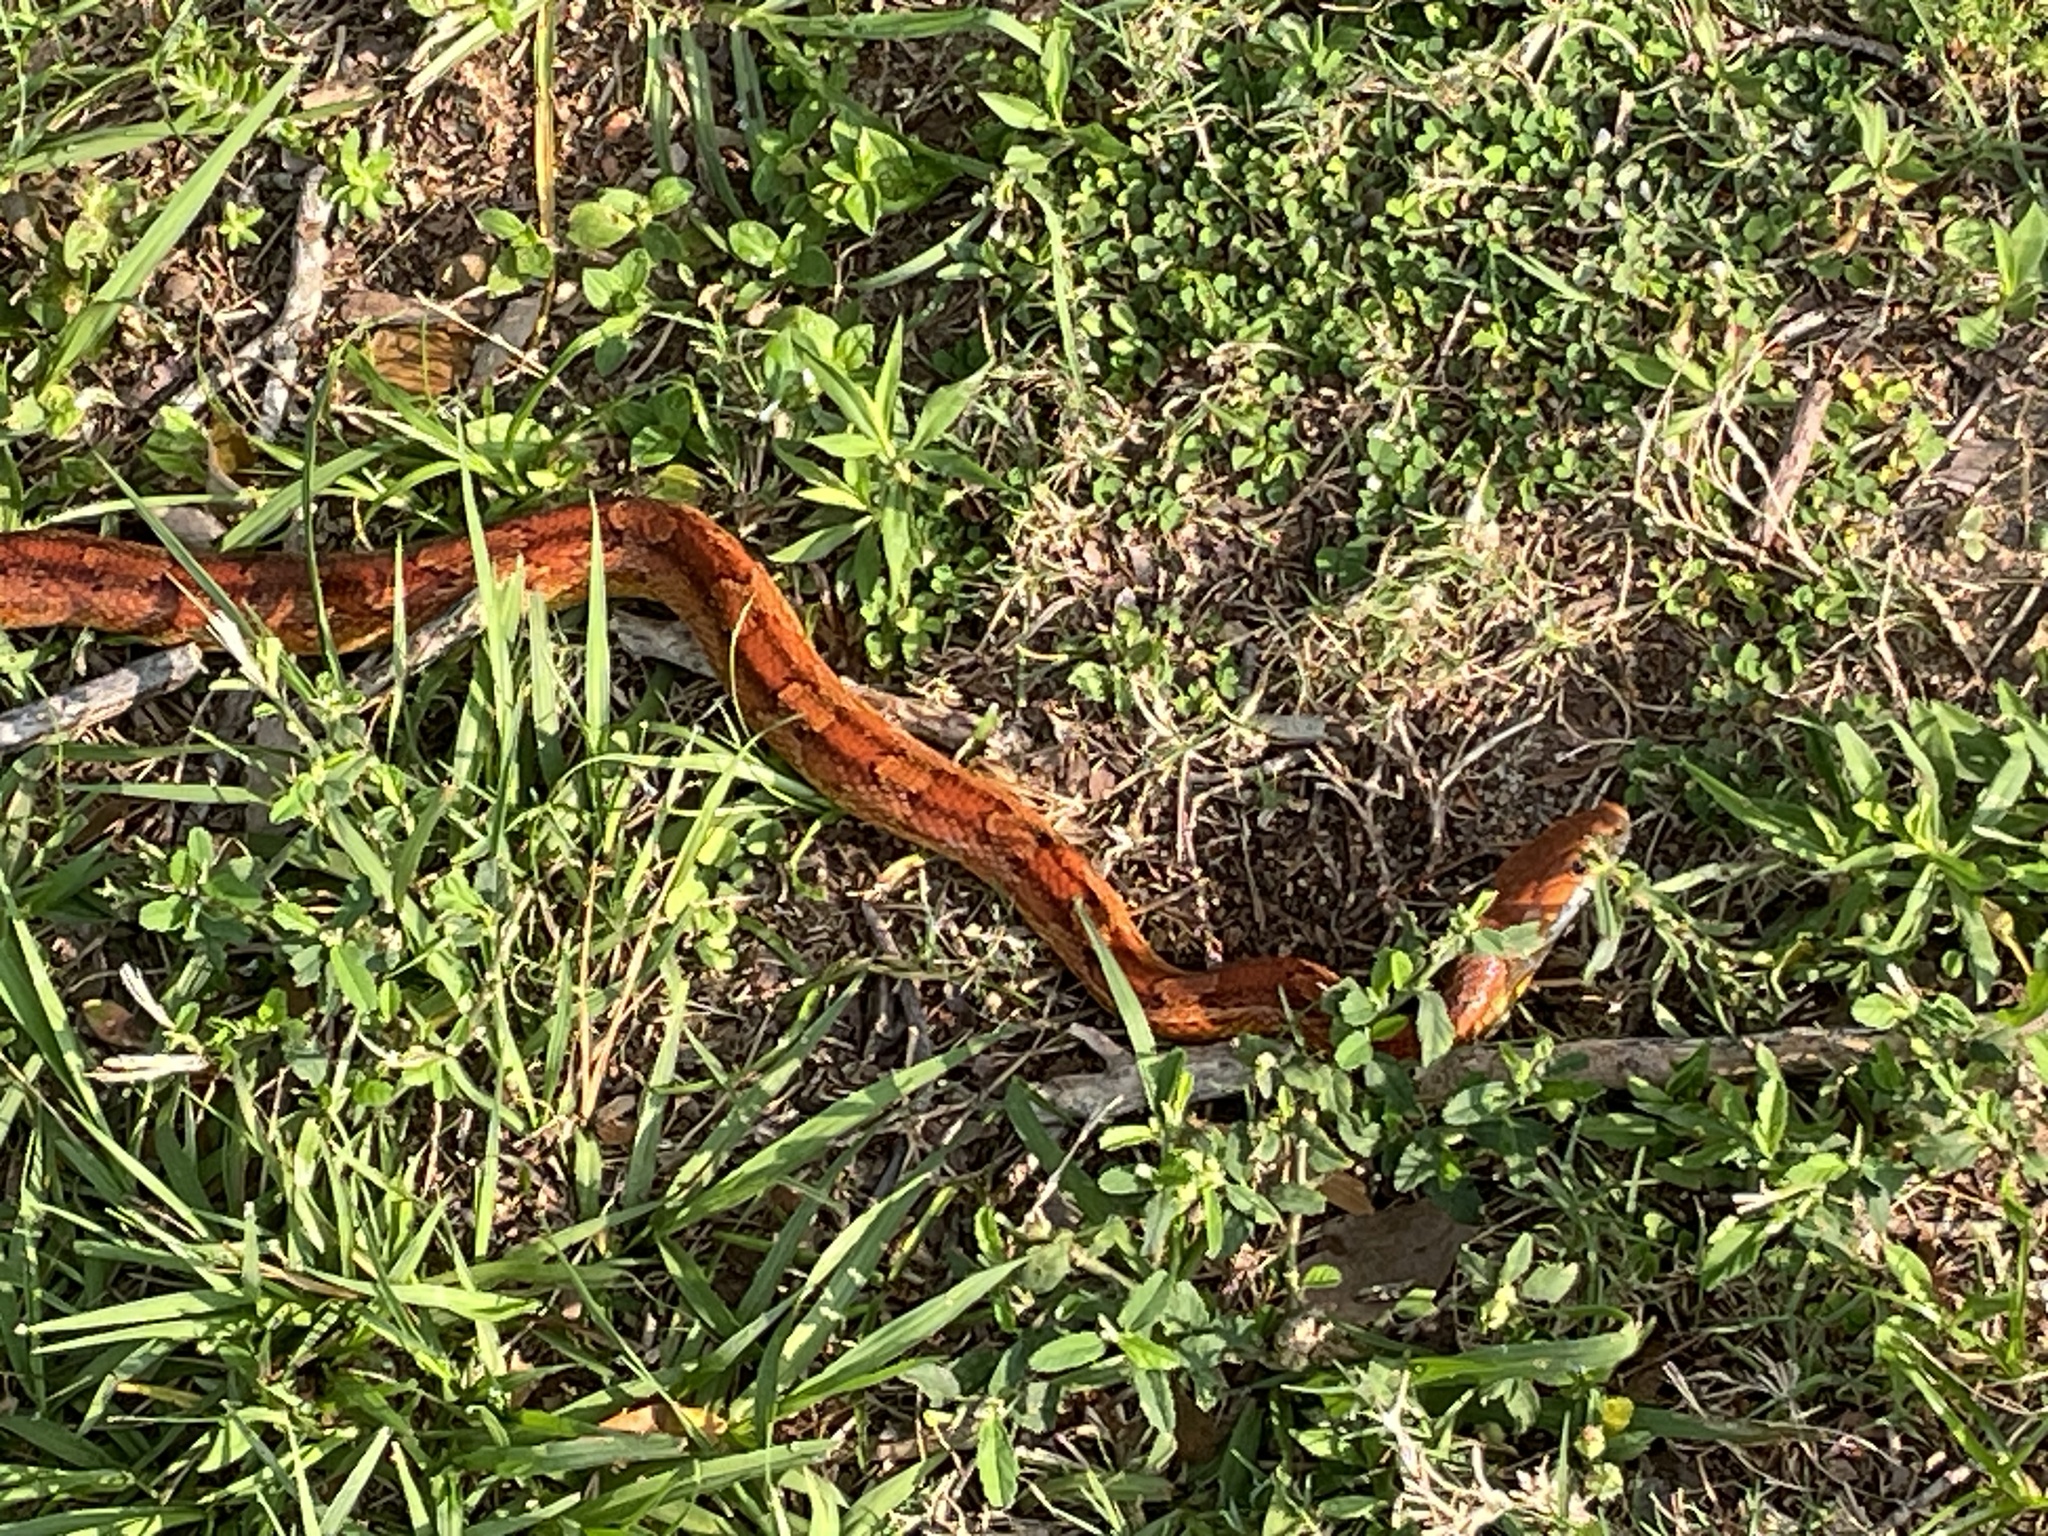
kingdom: Animalia
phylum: Chordata
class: Squamata
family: Colubridae
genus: Pantherophis
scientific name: Pantherophis guttatus
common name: Red cornsnake
